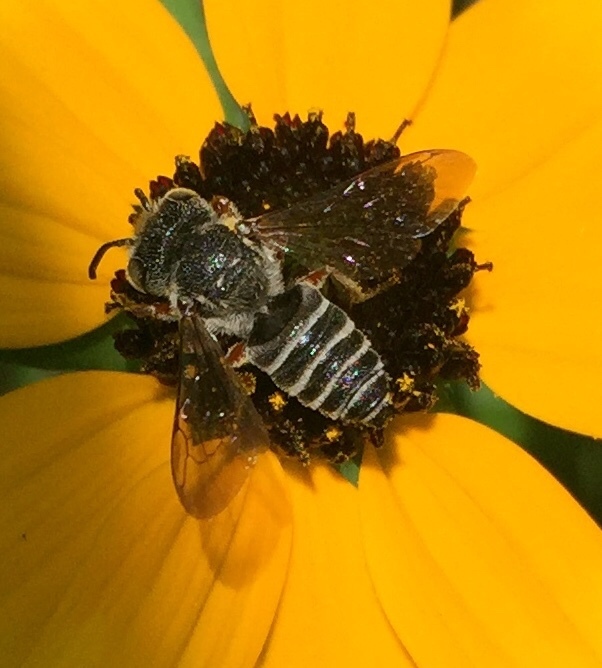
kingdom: Animalia
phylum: Arthropoda
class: Insecta
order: Hymenoptera
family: Megachilidae
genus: Coelioxys
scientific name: Coelioxys
